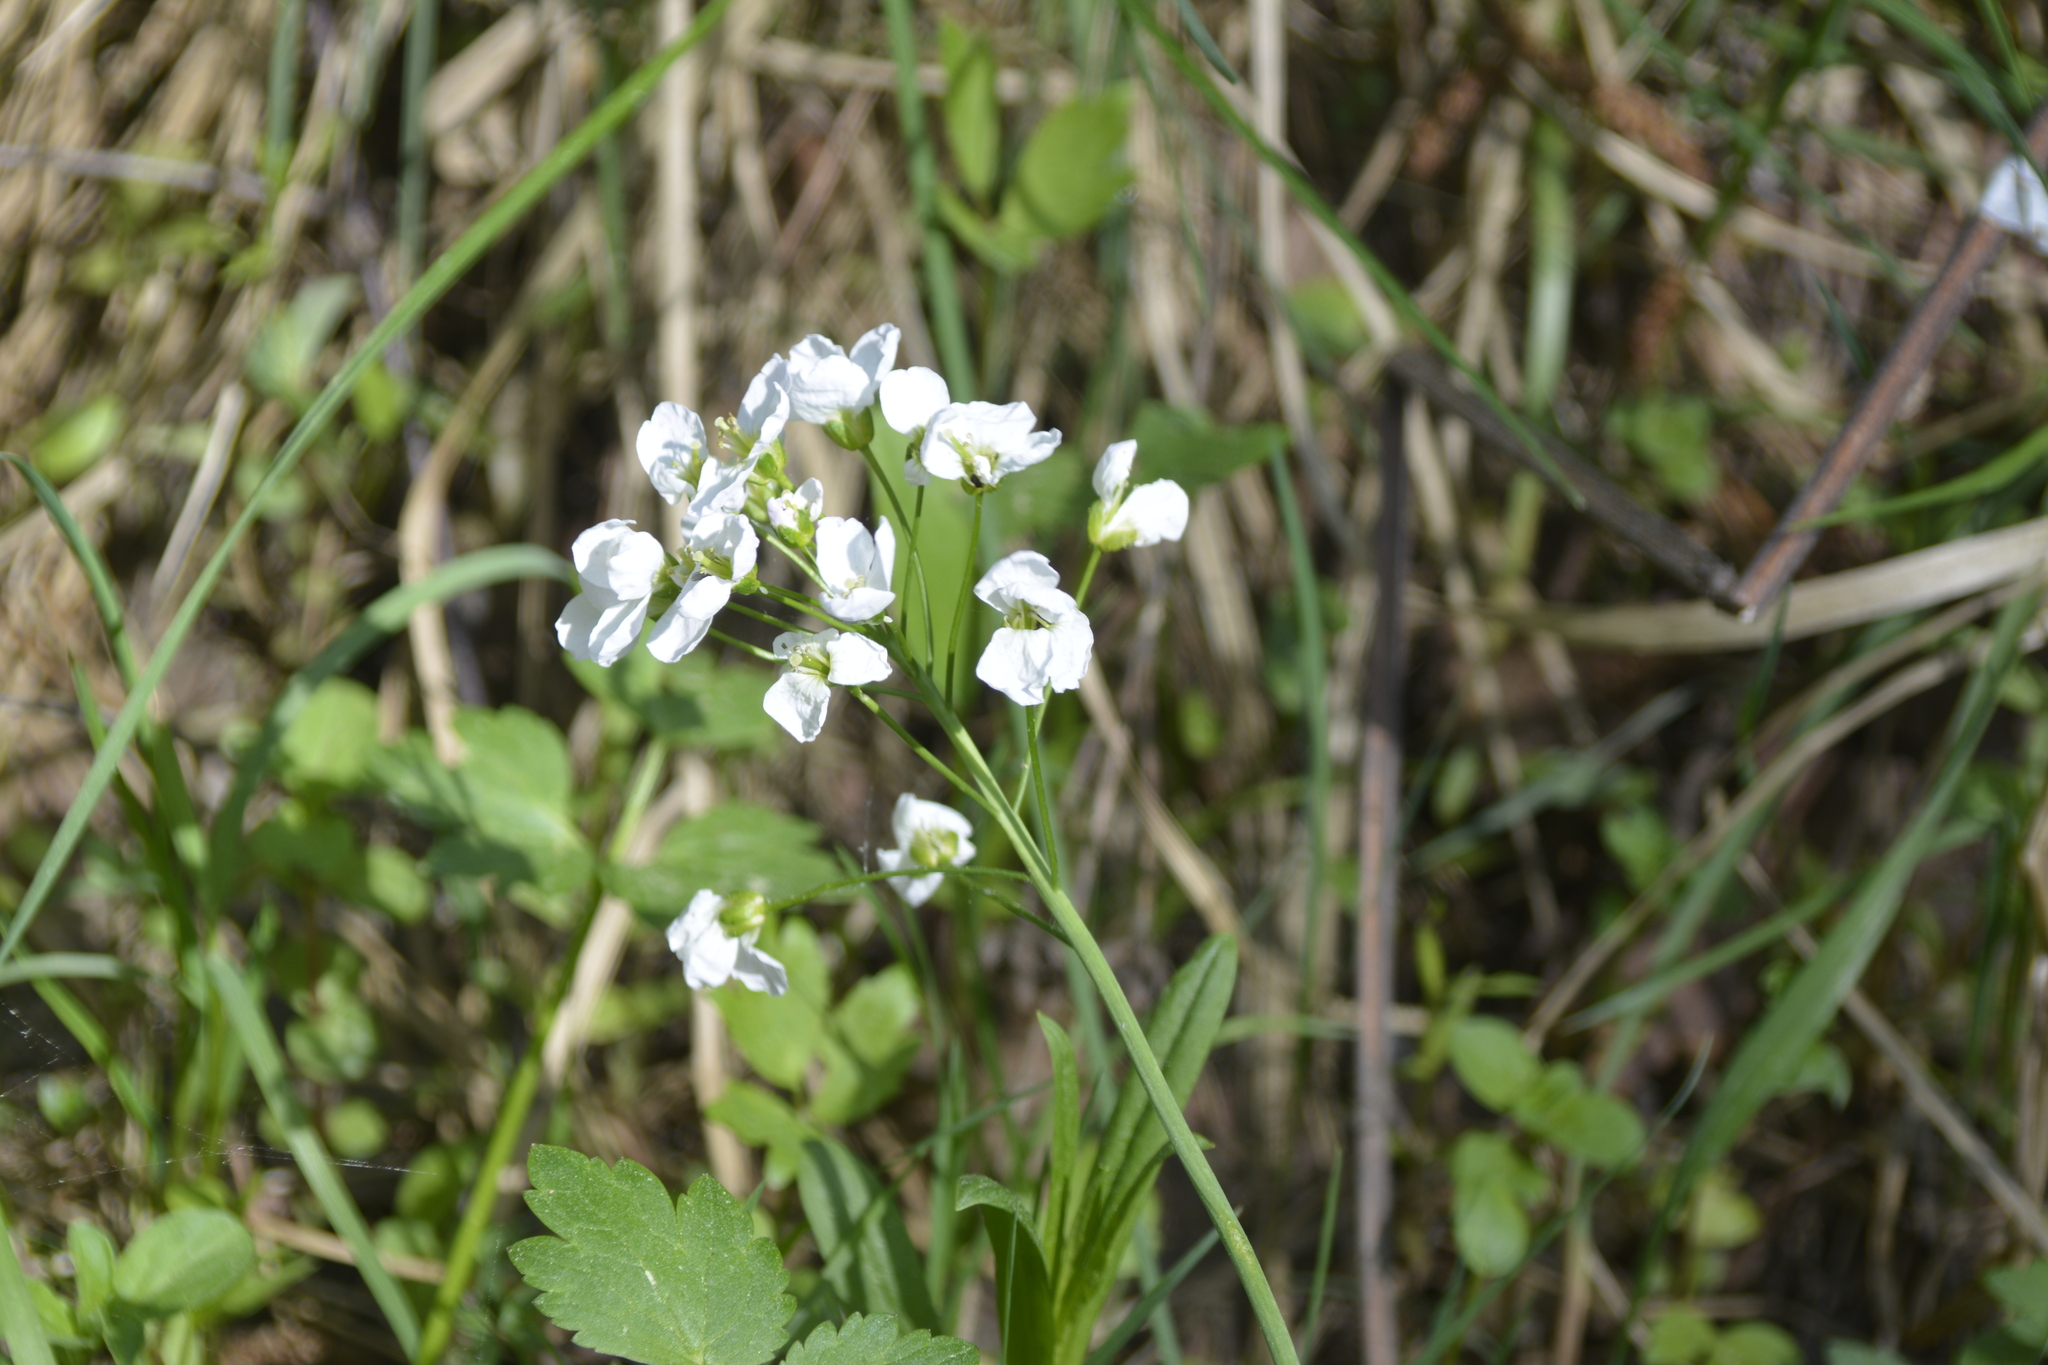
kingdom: Plantae
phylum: Tracheophyta
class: Magnoliopsida
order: Brassicales
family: Brassicaceae
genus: Cardamine
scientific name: Cardamine dentata
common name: Toothed bittercress
